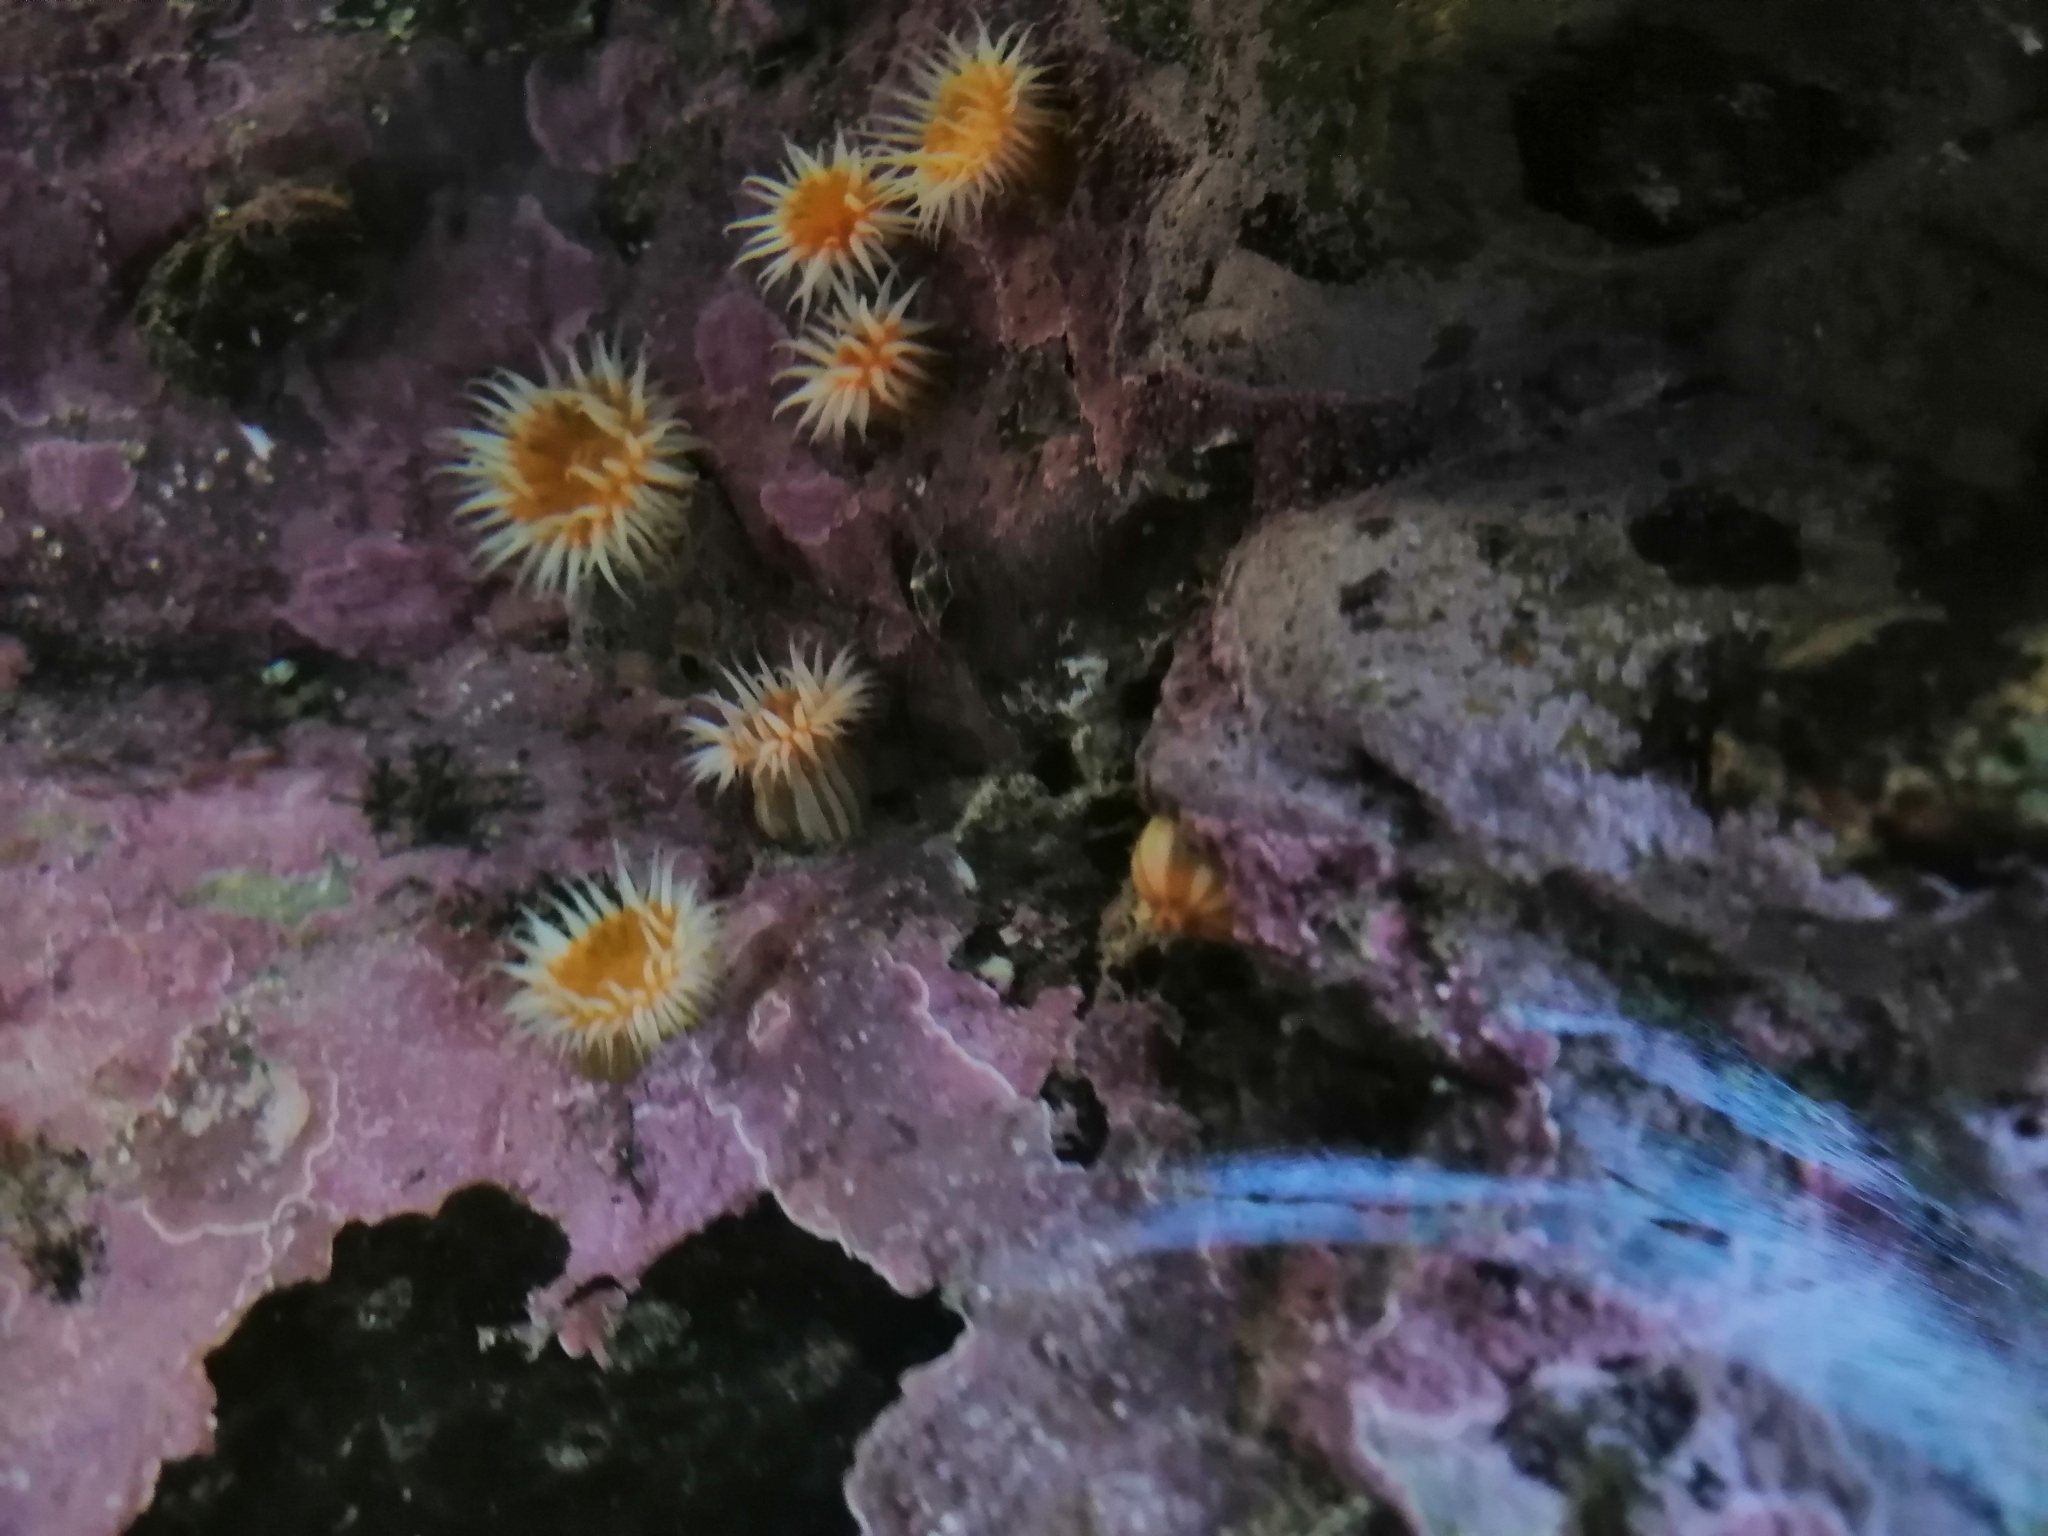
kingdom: Animalia
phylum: Cnidaria
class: Anthozoa
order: Actiniaria
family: Sagartiidae
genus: Anthothoe
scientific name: Anthothoe albocincta
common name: Orange striped anemone
